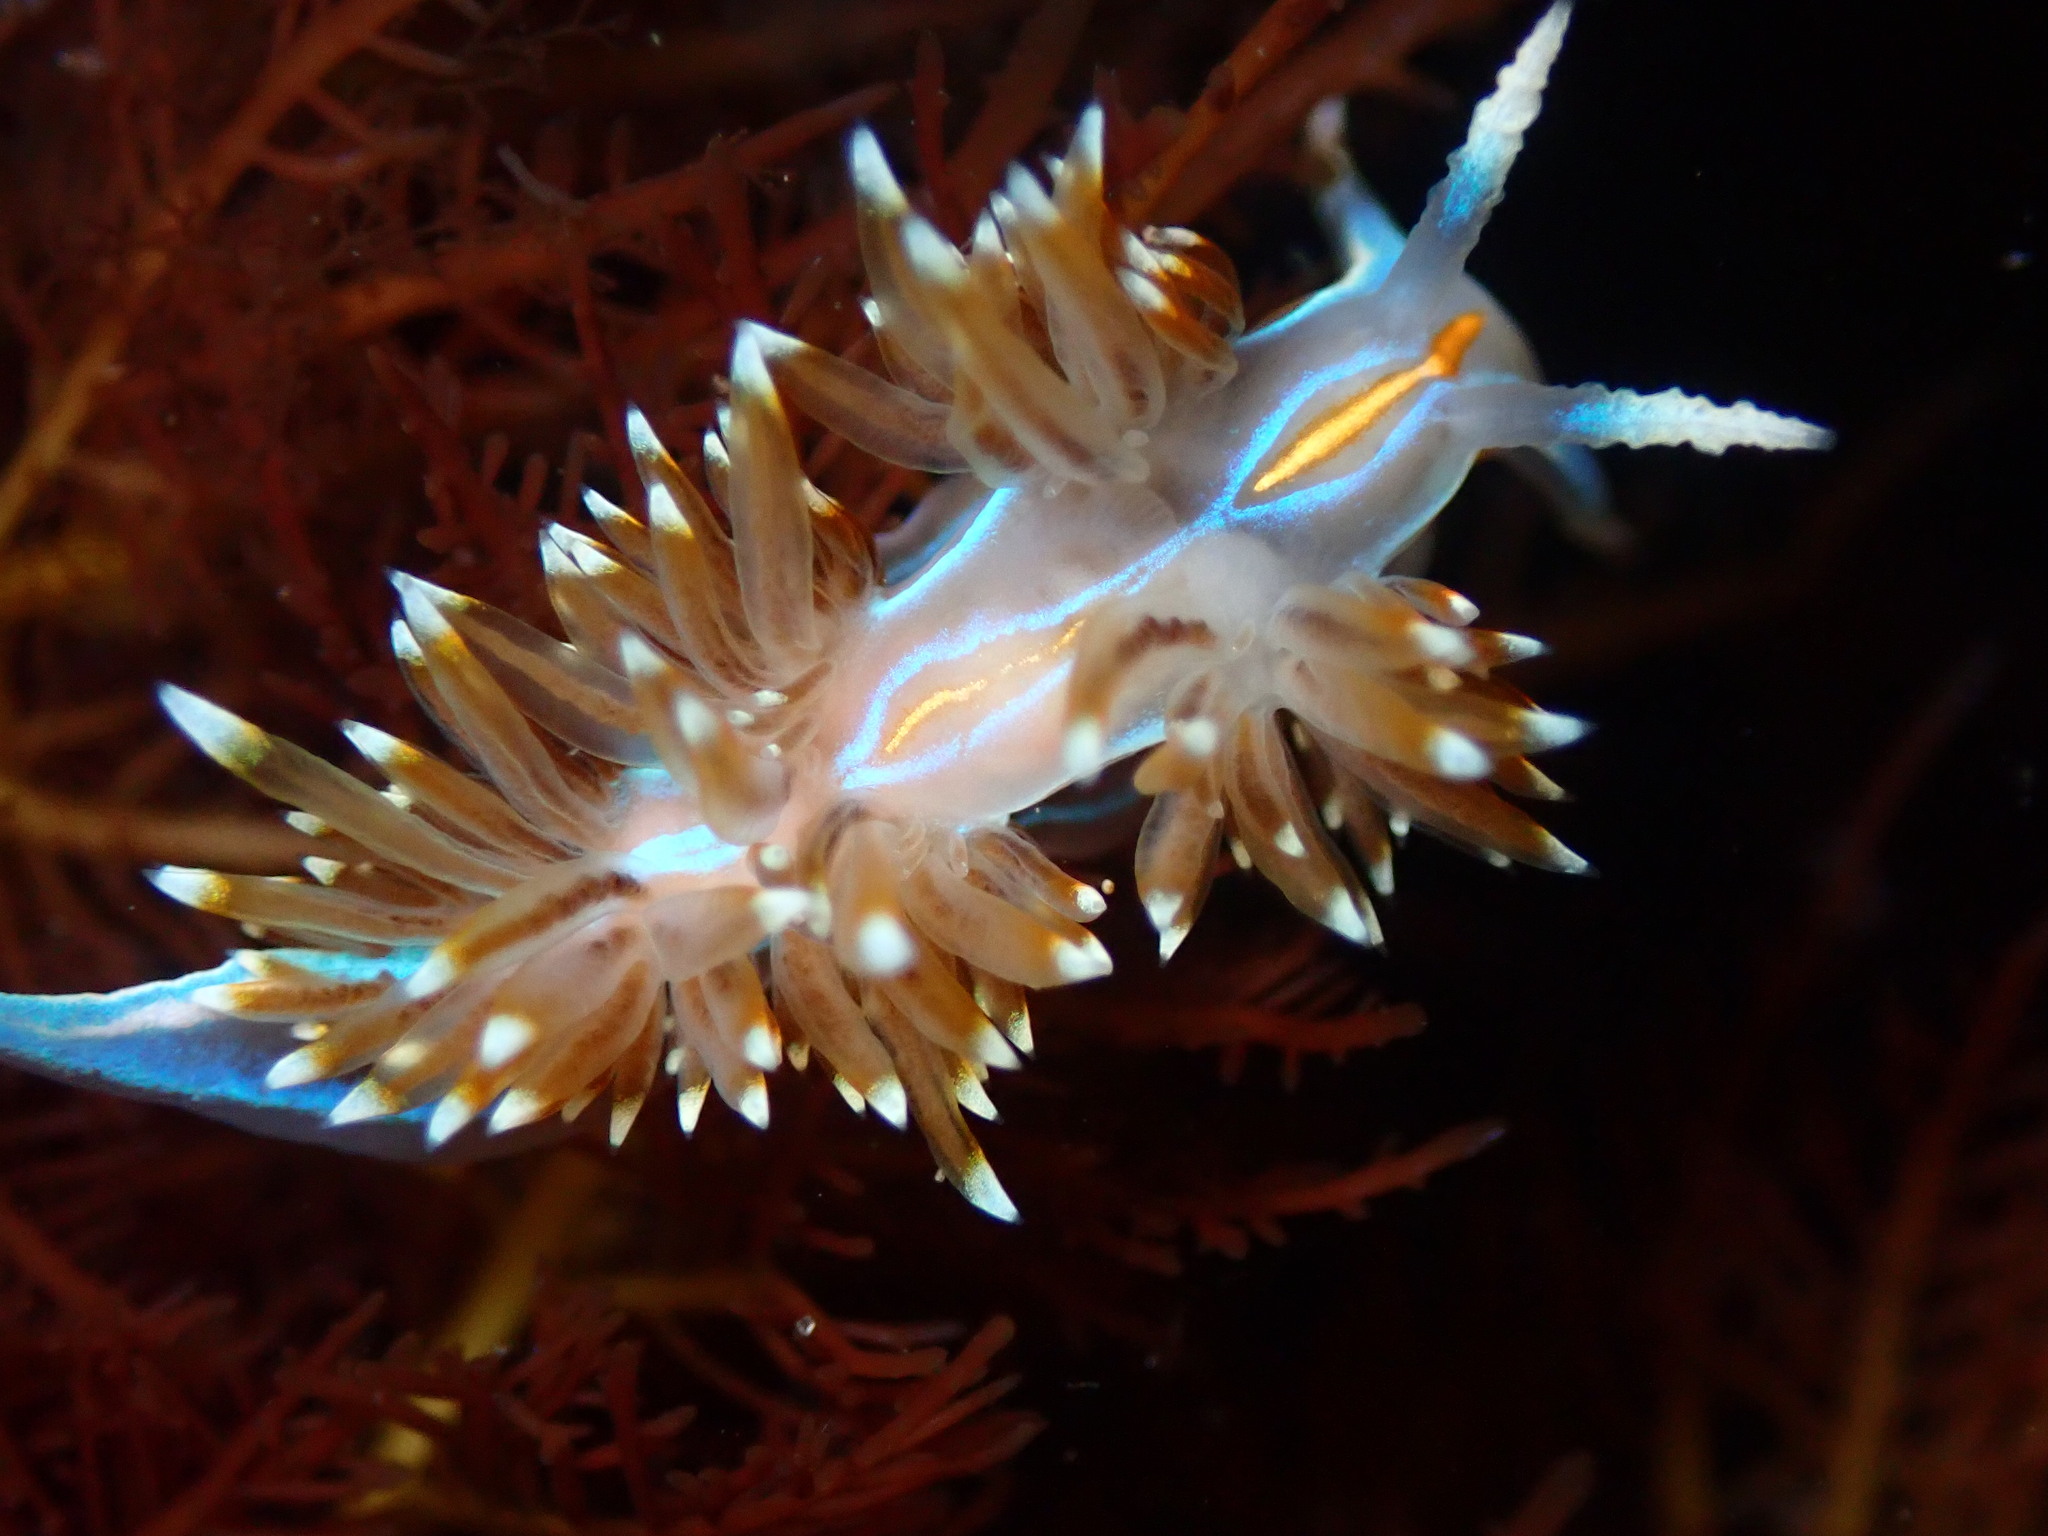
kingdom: Animalia
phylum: Mollusca
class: Gastropoda
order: Nudibranchia
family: Myrrhinidae
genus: Hermissenda
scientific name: Hermissenda opalescens
